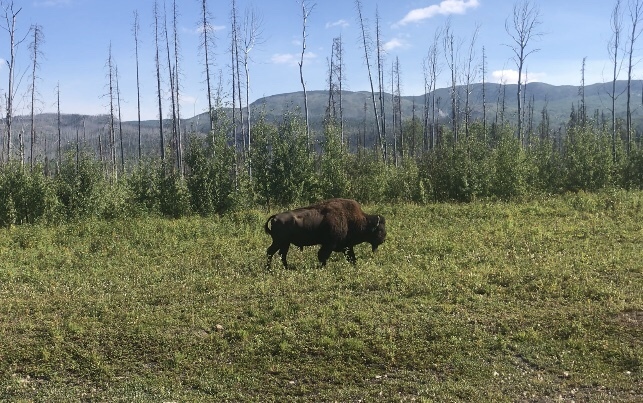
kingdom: Animalia
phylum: Chordata
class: Mammalia
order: Artiodactyla
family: Bovidae
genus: Bison
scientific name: Bison bison
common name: American bison
